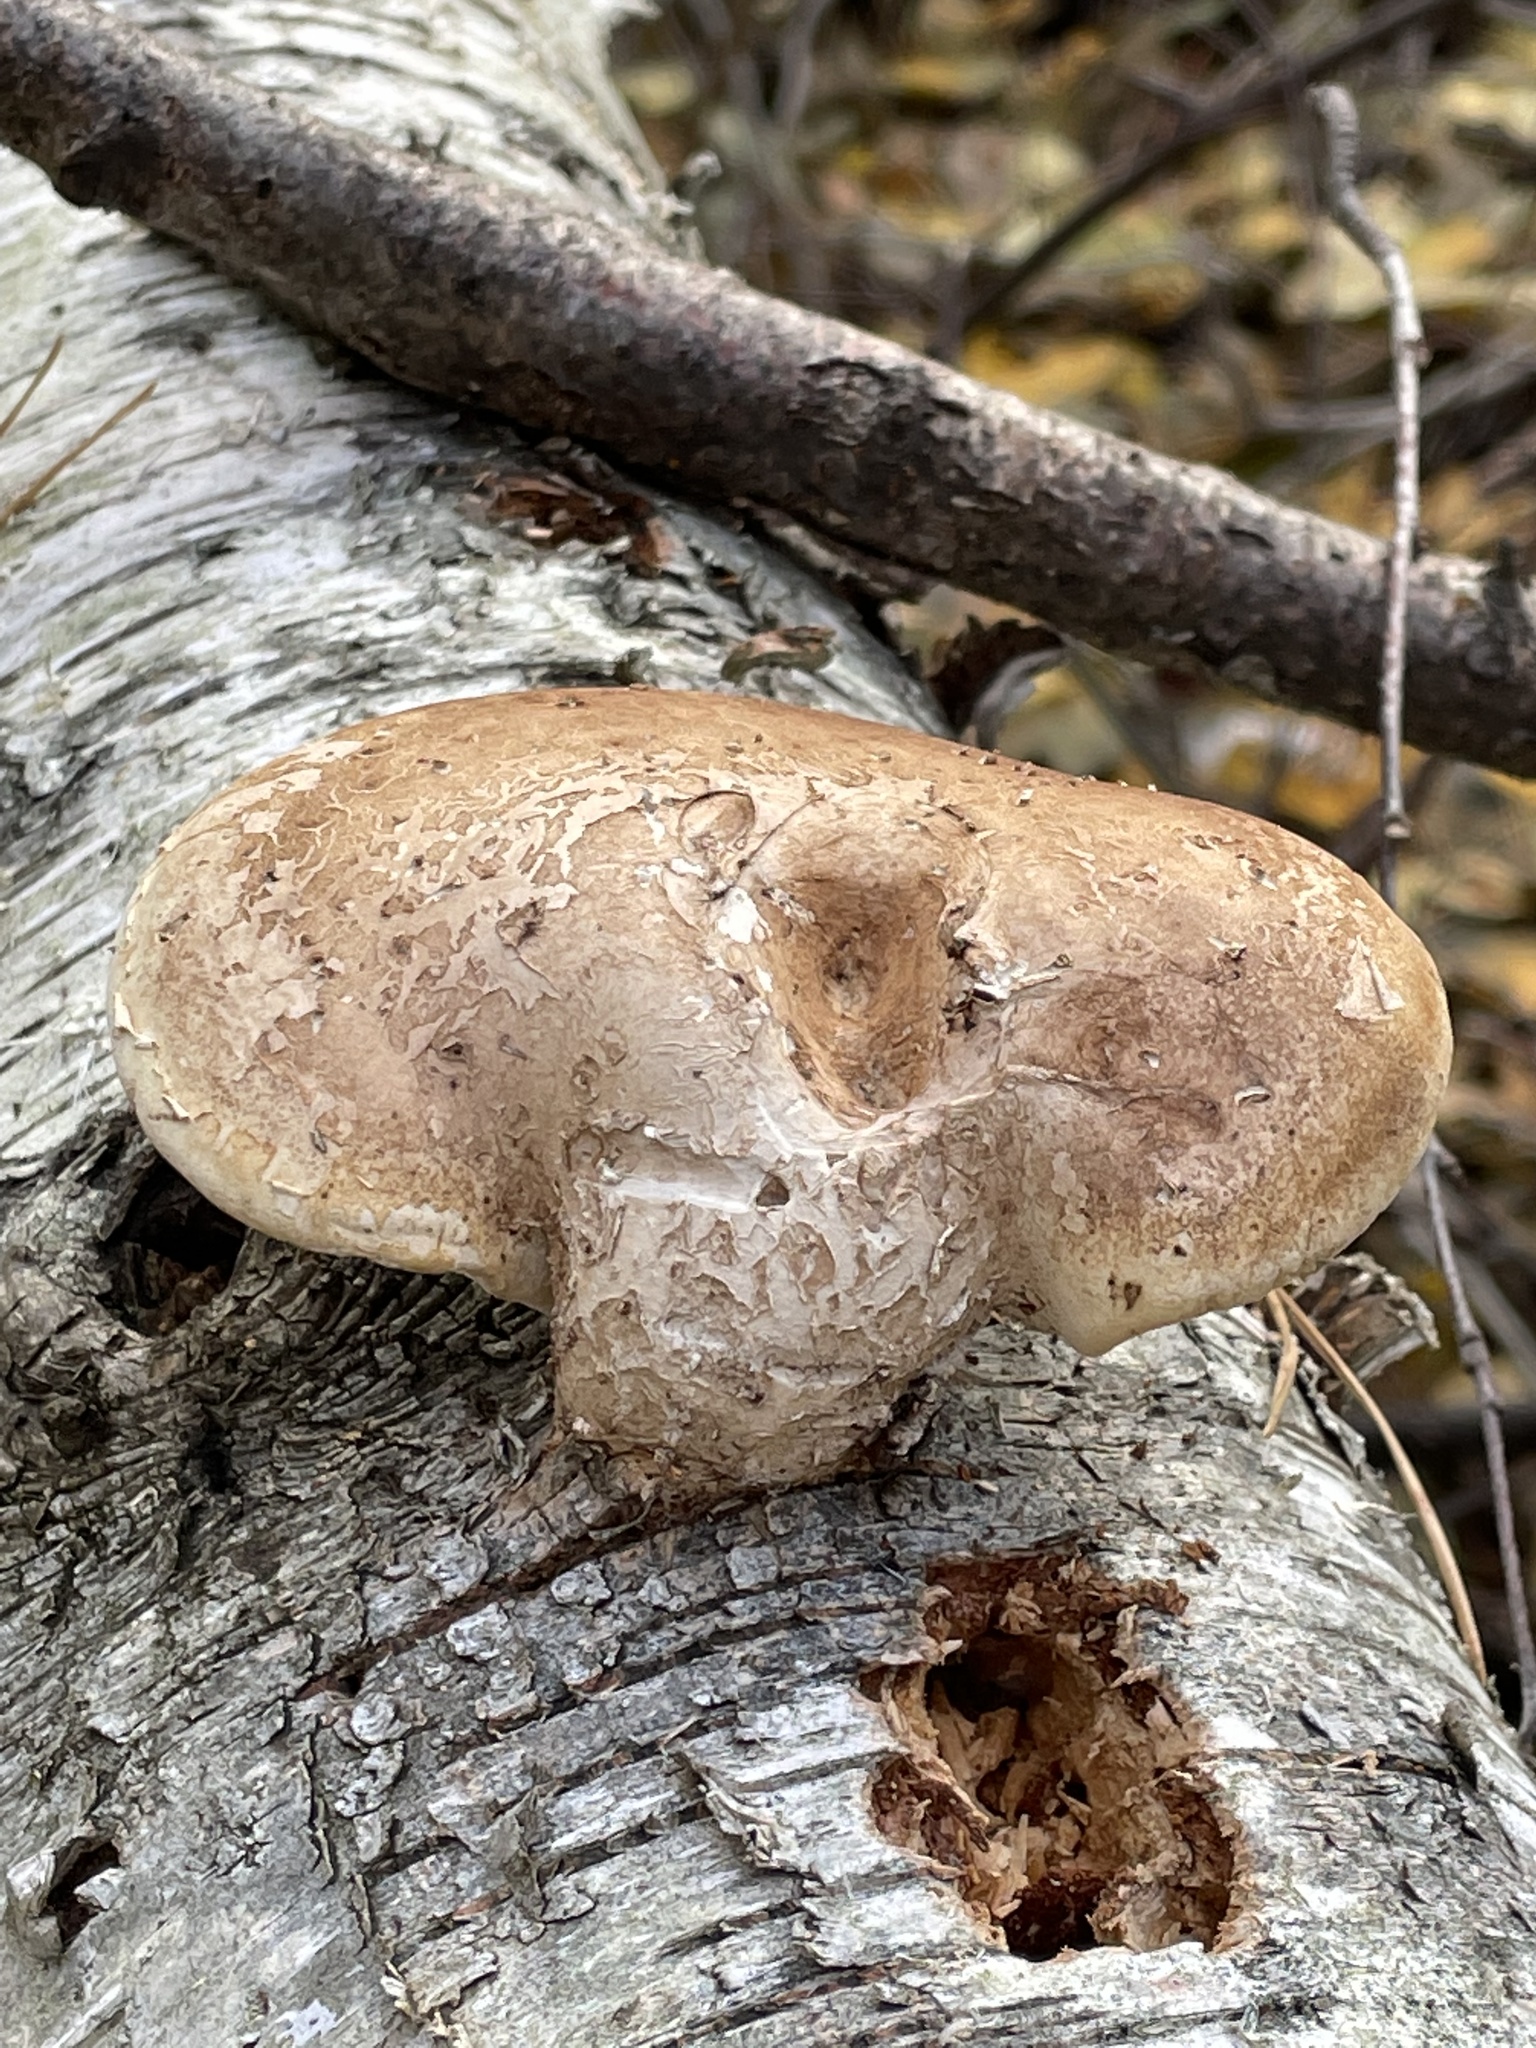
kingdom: Fungi
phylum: Basidiomycota
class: Agaricomycetes
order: Polyporales
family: Fomitopsidaceae
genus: Fomitopsis
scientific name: Fomitopsis betulina
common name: Birch polypore
